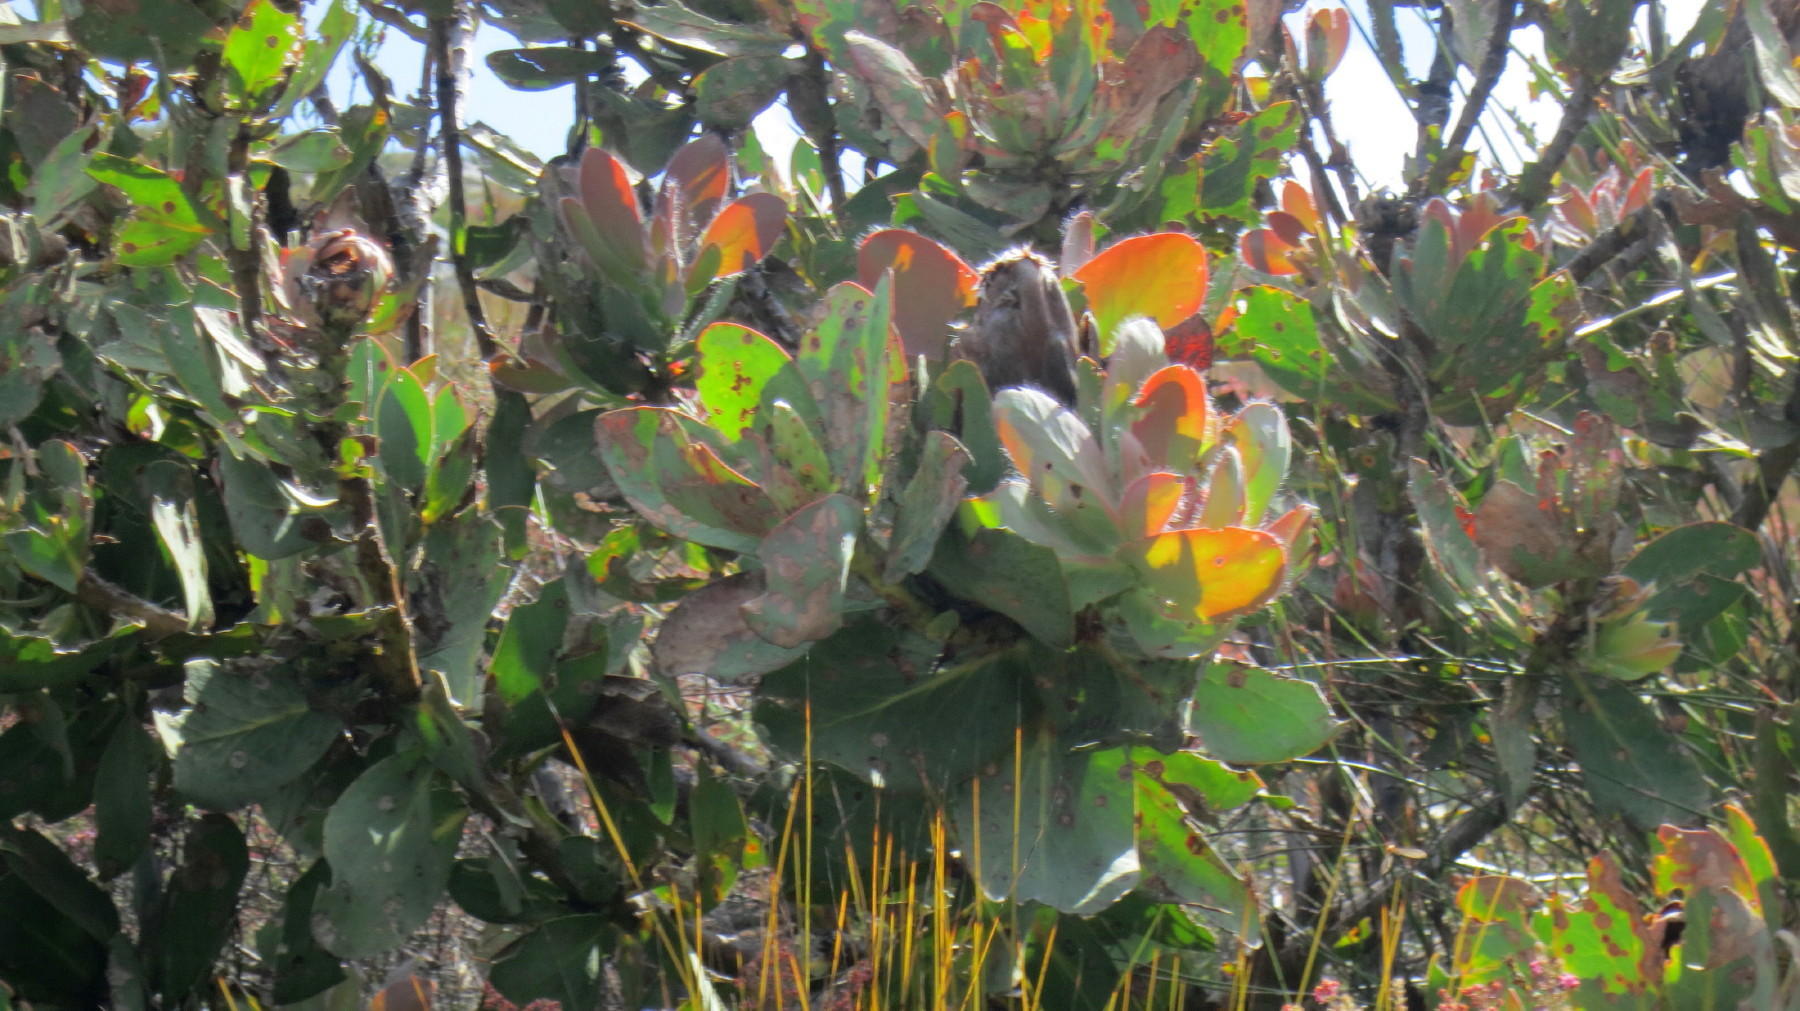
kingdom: Plantae
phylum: Tracheophyta
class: Magnoliopsida
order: Proteales
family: Proteaceae
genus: Protea
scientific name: Protea grandiceps
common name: Red sugarbush
